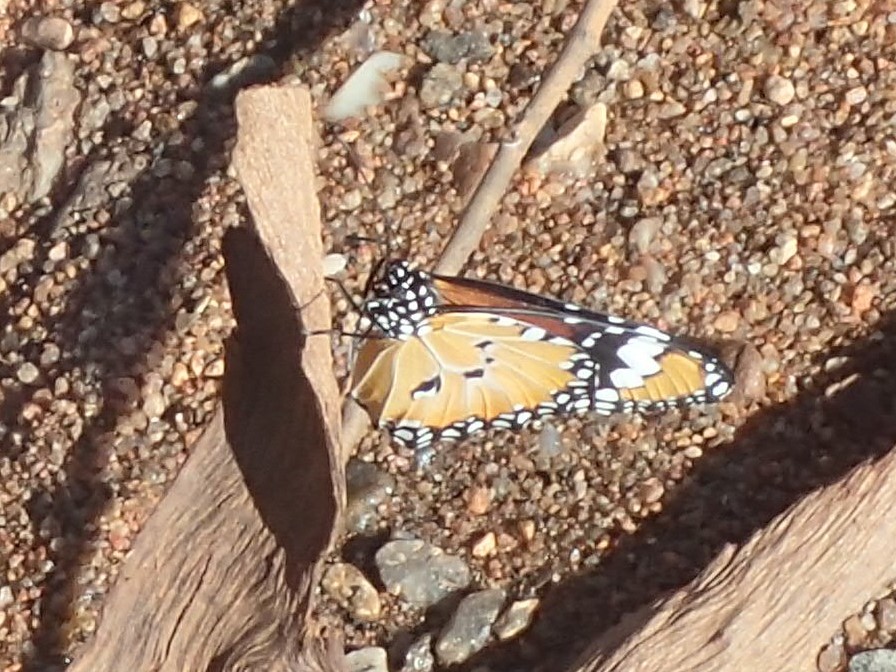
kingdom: Animalia
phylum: Arthropoda
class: Insecta
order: Lepidoptera
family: Nymphalidae
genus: Danaus
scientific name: Danaus chrysippus
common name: Plain tiger
